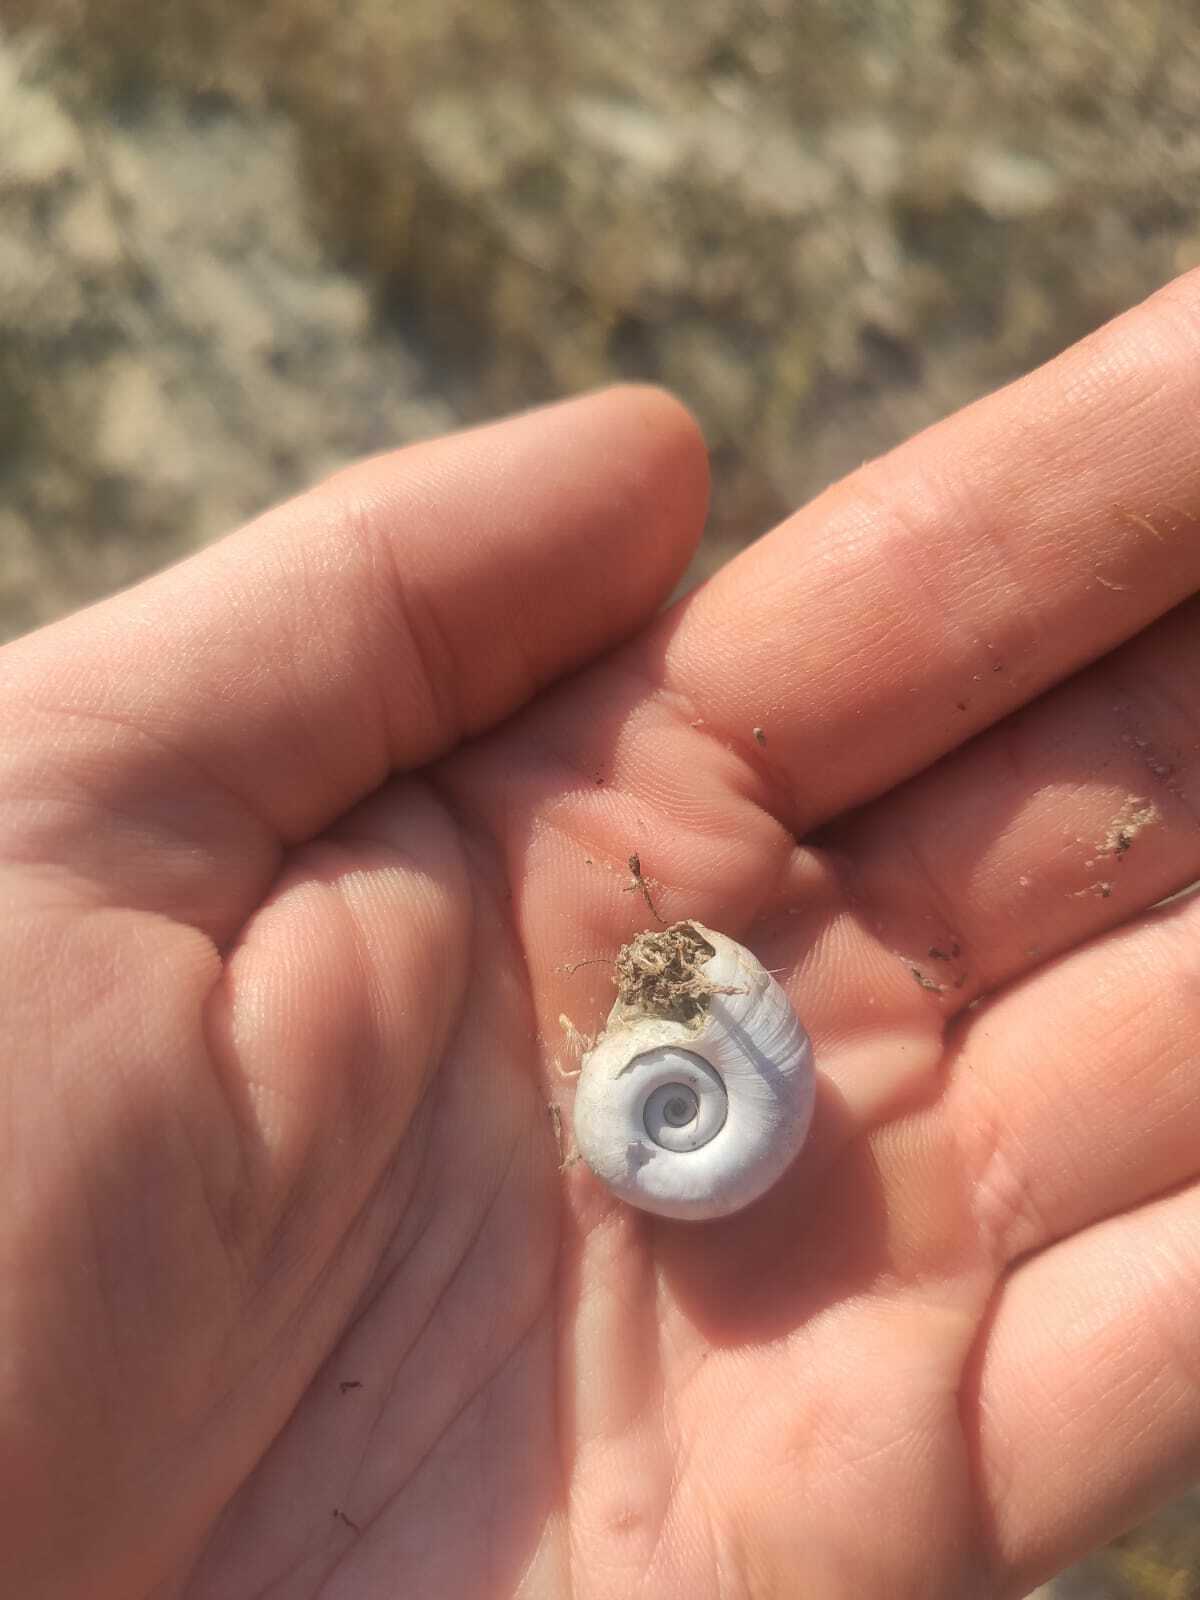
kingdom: Animalia
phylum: Mollusca
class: Gastropoda
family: Planorbidae
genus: Planorbarius
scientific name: Planorbarius corneus
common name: Great ramshorn
